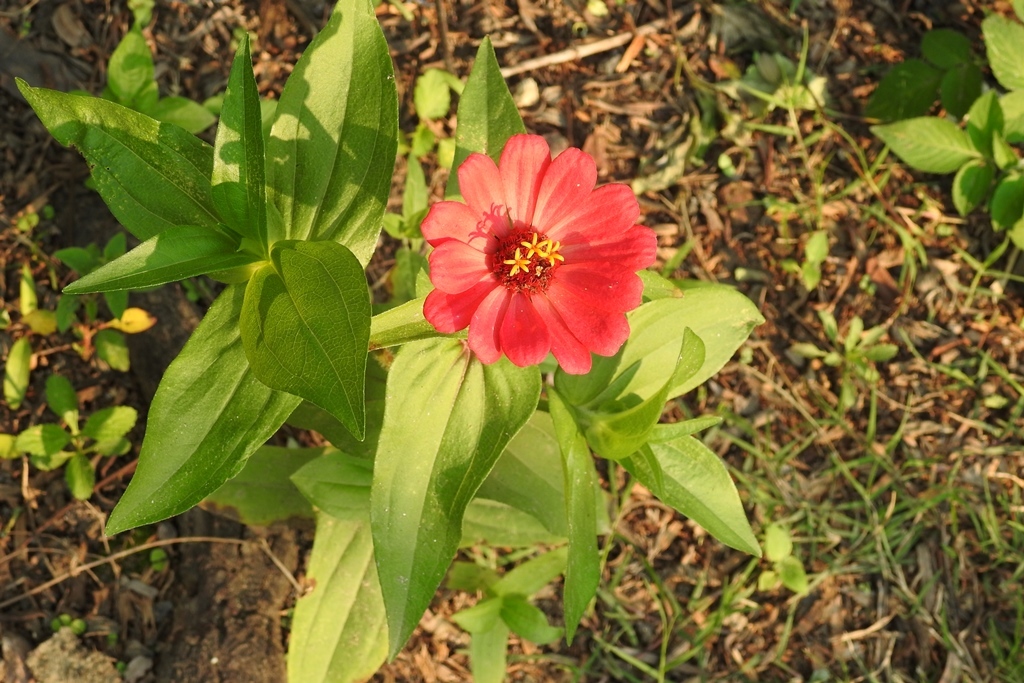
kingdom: Plantae
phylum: Tracheophyta
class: Magnoliopsida
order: Asterales
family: Asteraceae
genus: Zinnia
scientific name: Zinnia elegans
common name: Youth-and-age
